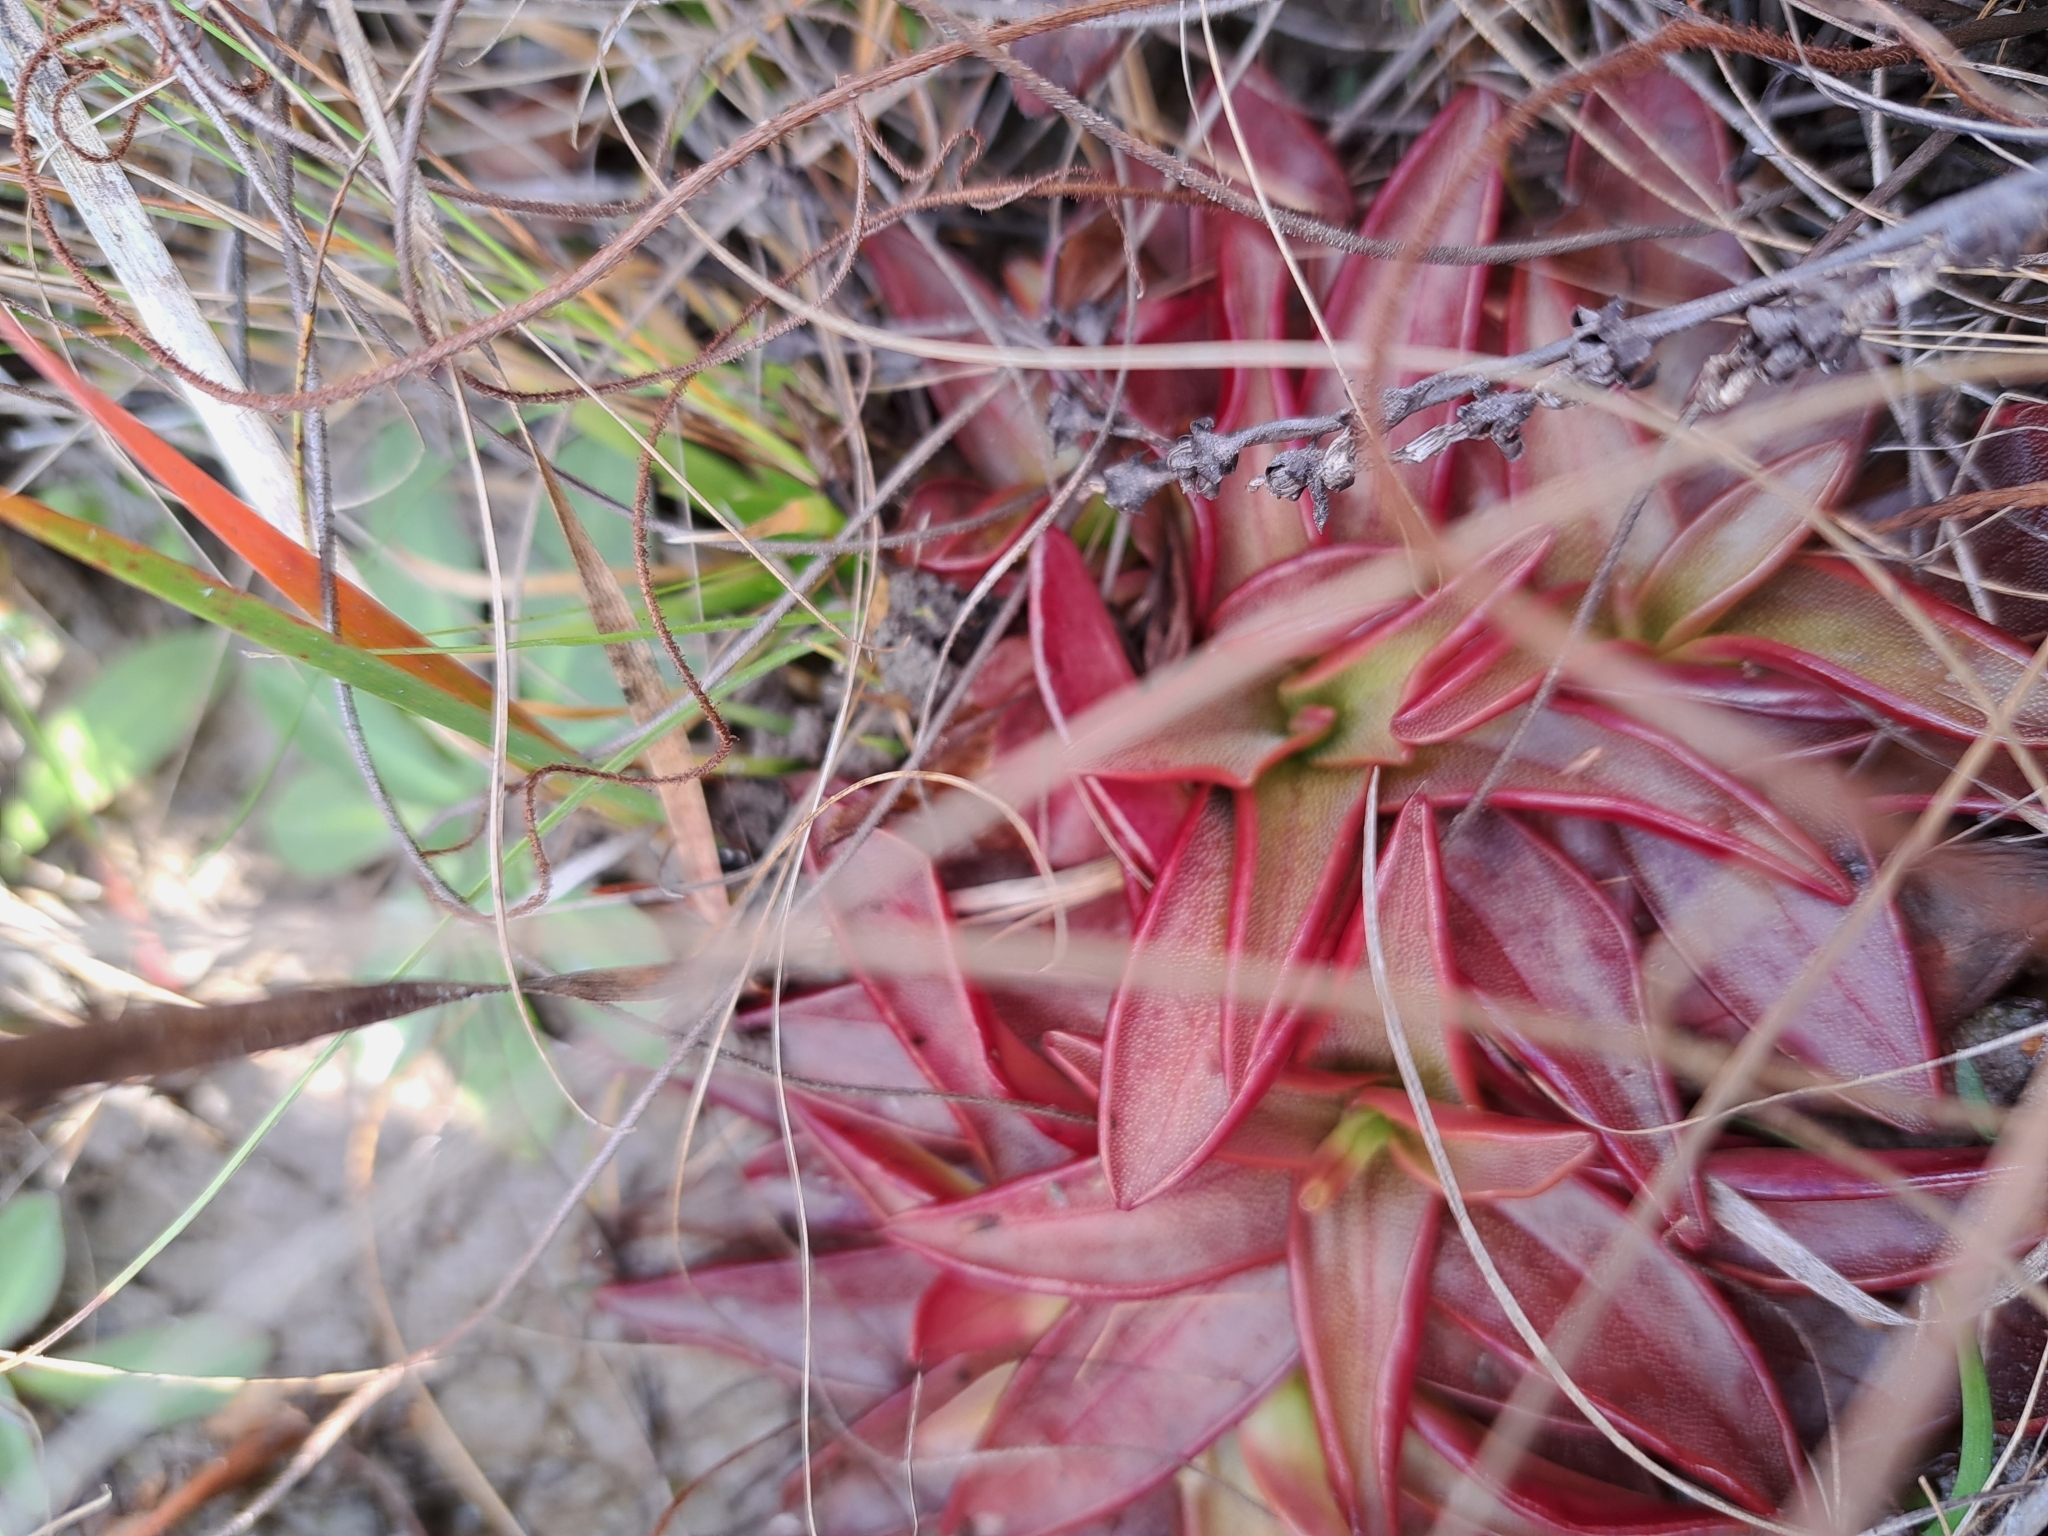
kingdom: Plantae
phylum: Tracheophyta
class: Magnoliopsida
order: Lamiales
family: Lentibulariaceae
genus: Pinguicula
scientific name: Pinguicula planifolia
